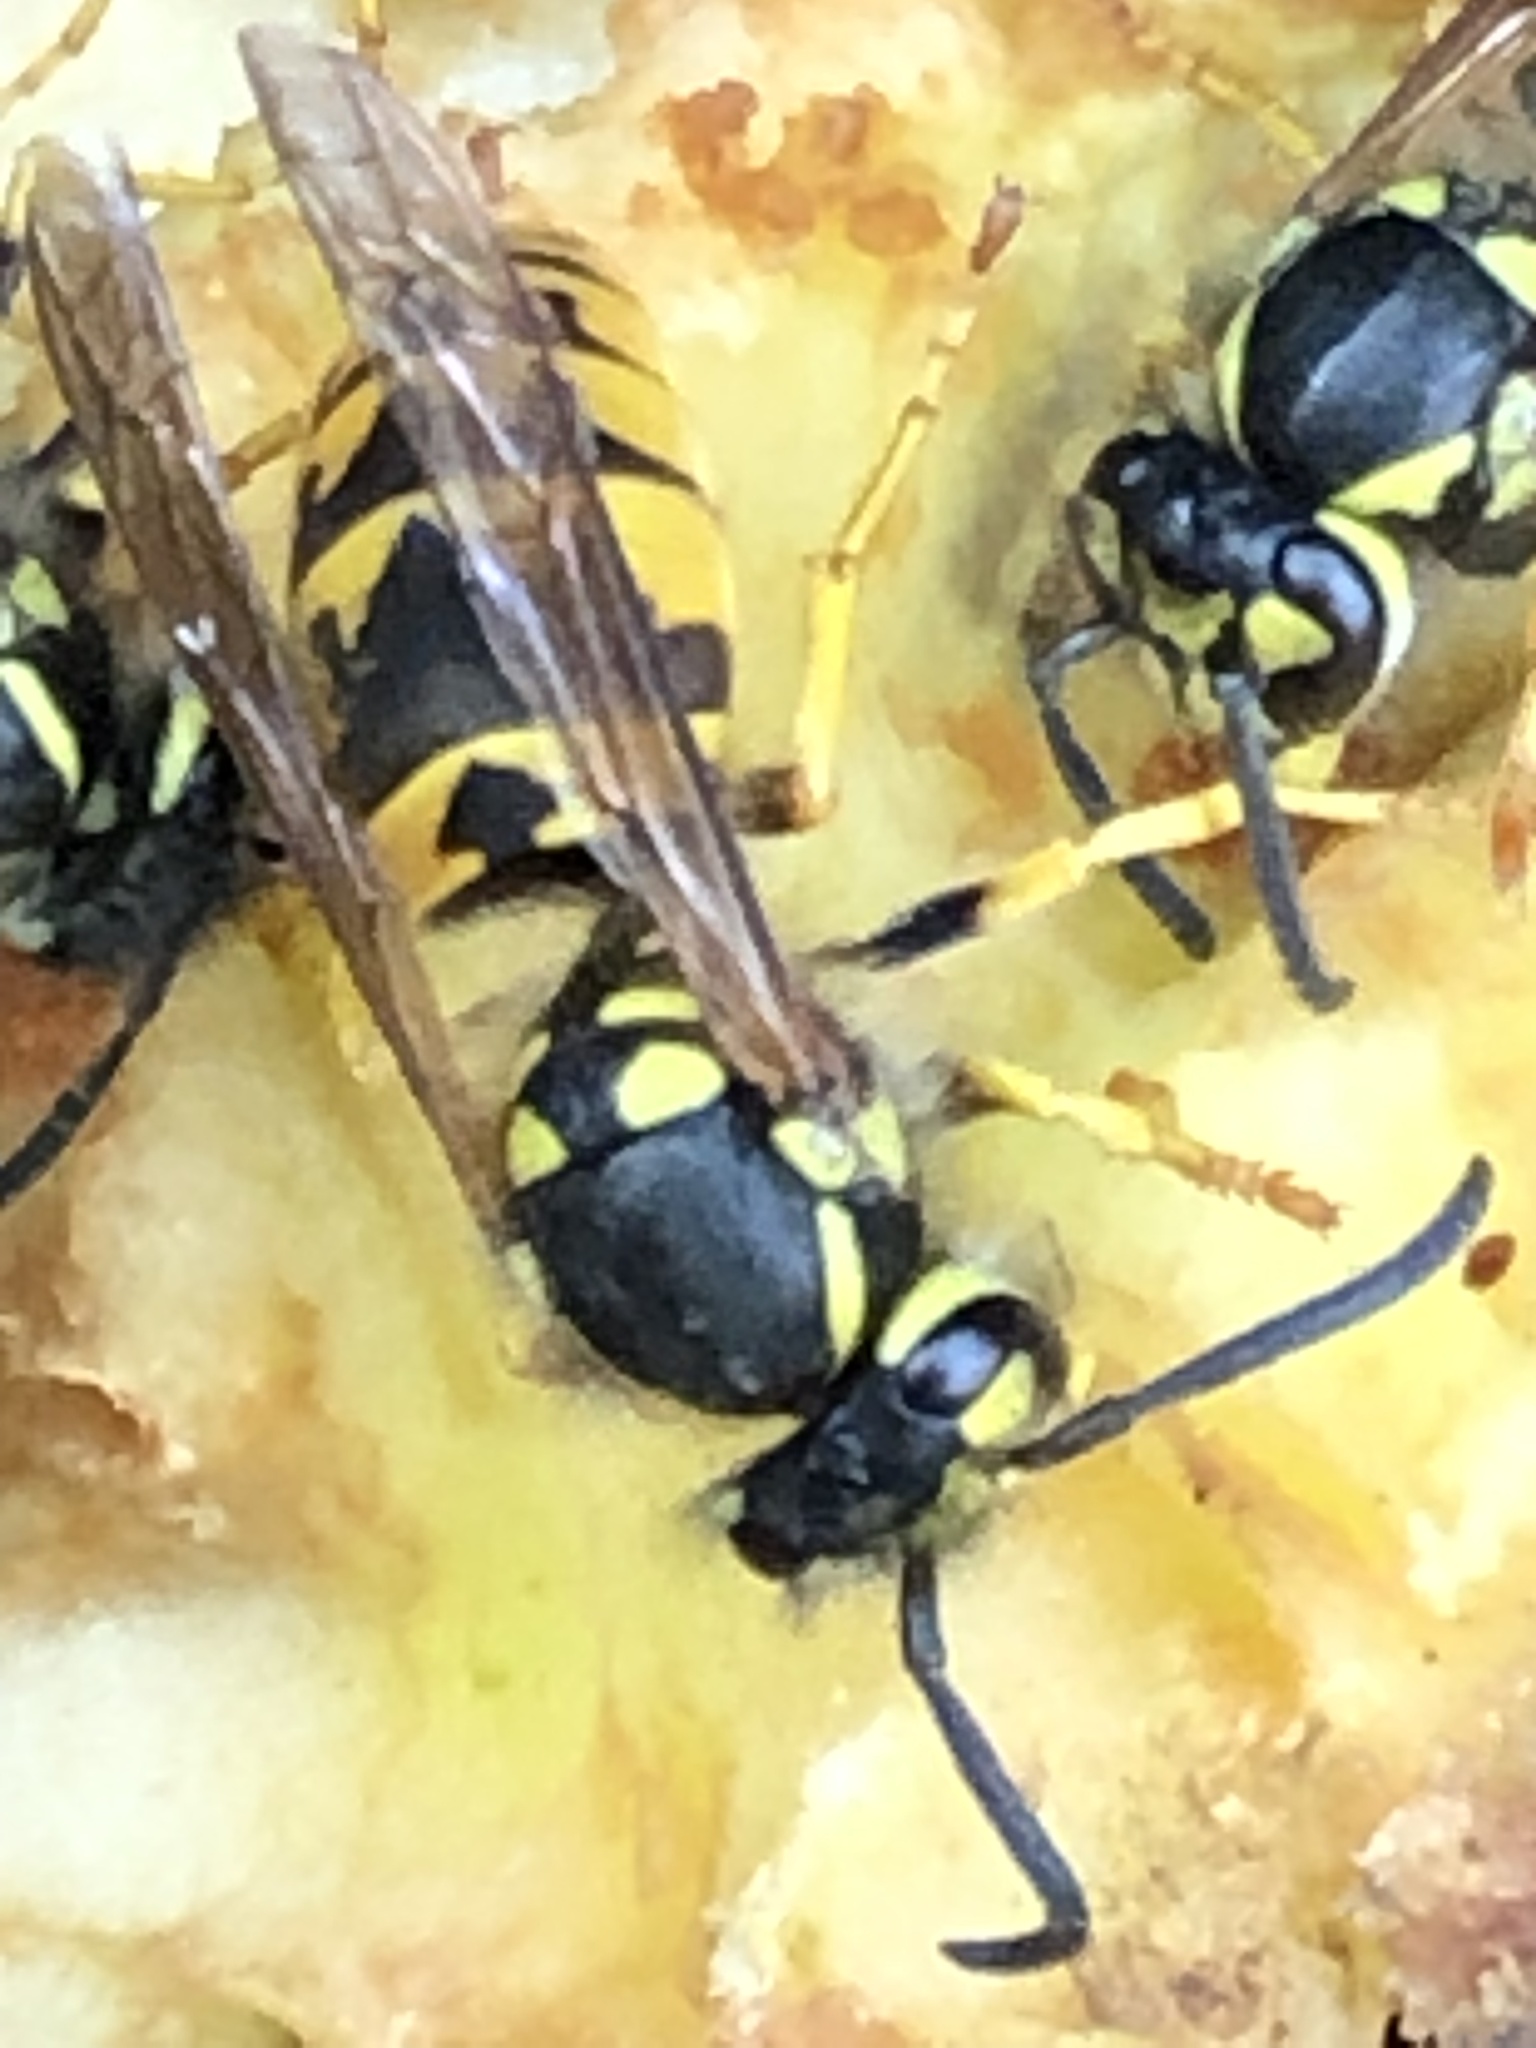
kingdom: Animalia
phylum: Arthropoda
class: Insecta
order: Hymenoptera
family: Vespidae
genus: Vespula
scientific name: Vespula germanica
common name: German wasp
